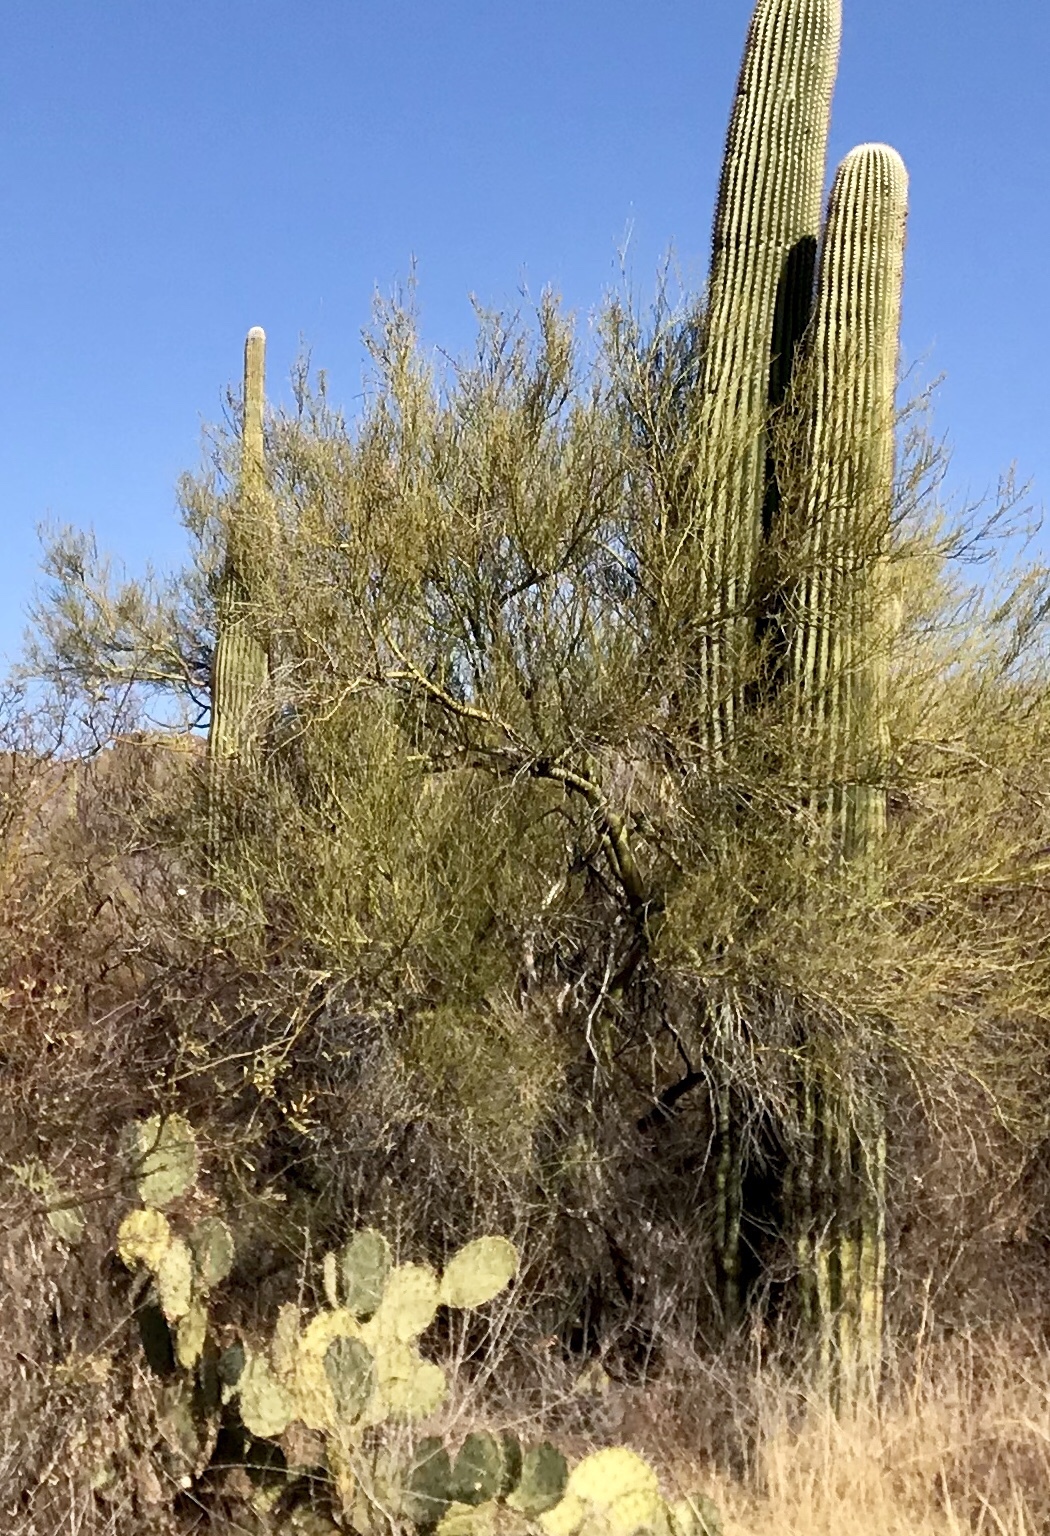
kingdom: Plantae
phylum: Tracheophyta
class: Magnoliopsida
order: Fabales
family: Fabaceae
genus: Parkinsonia
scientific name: Parkinsonia microphylla
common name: Yellow paloverde
